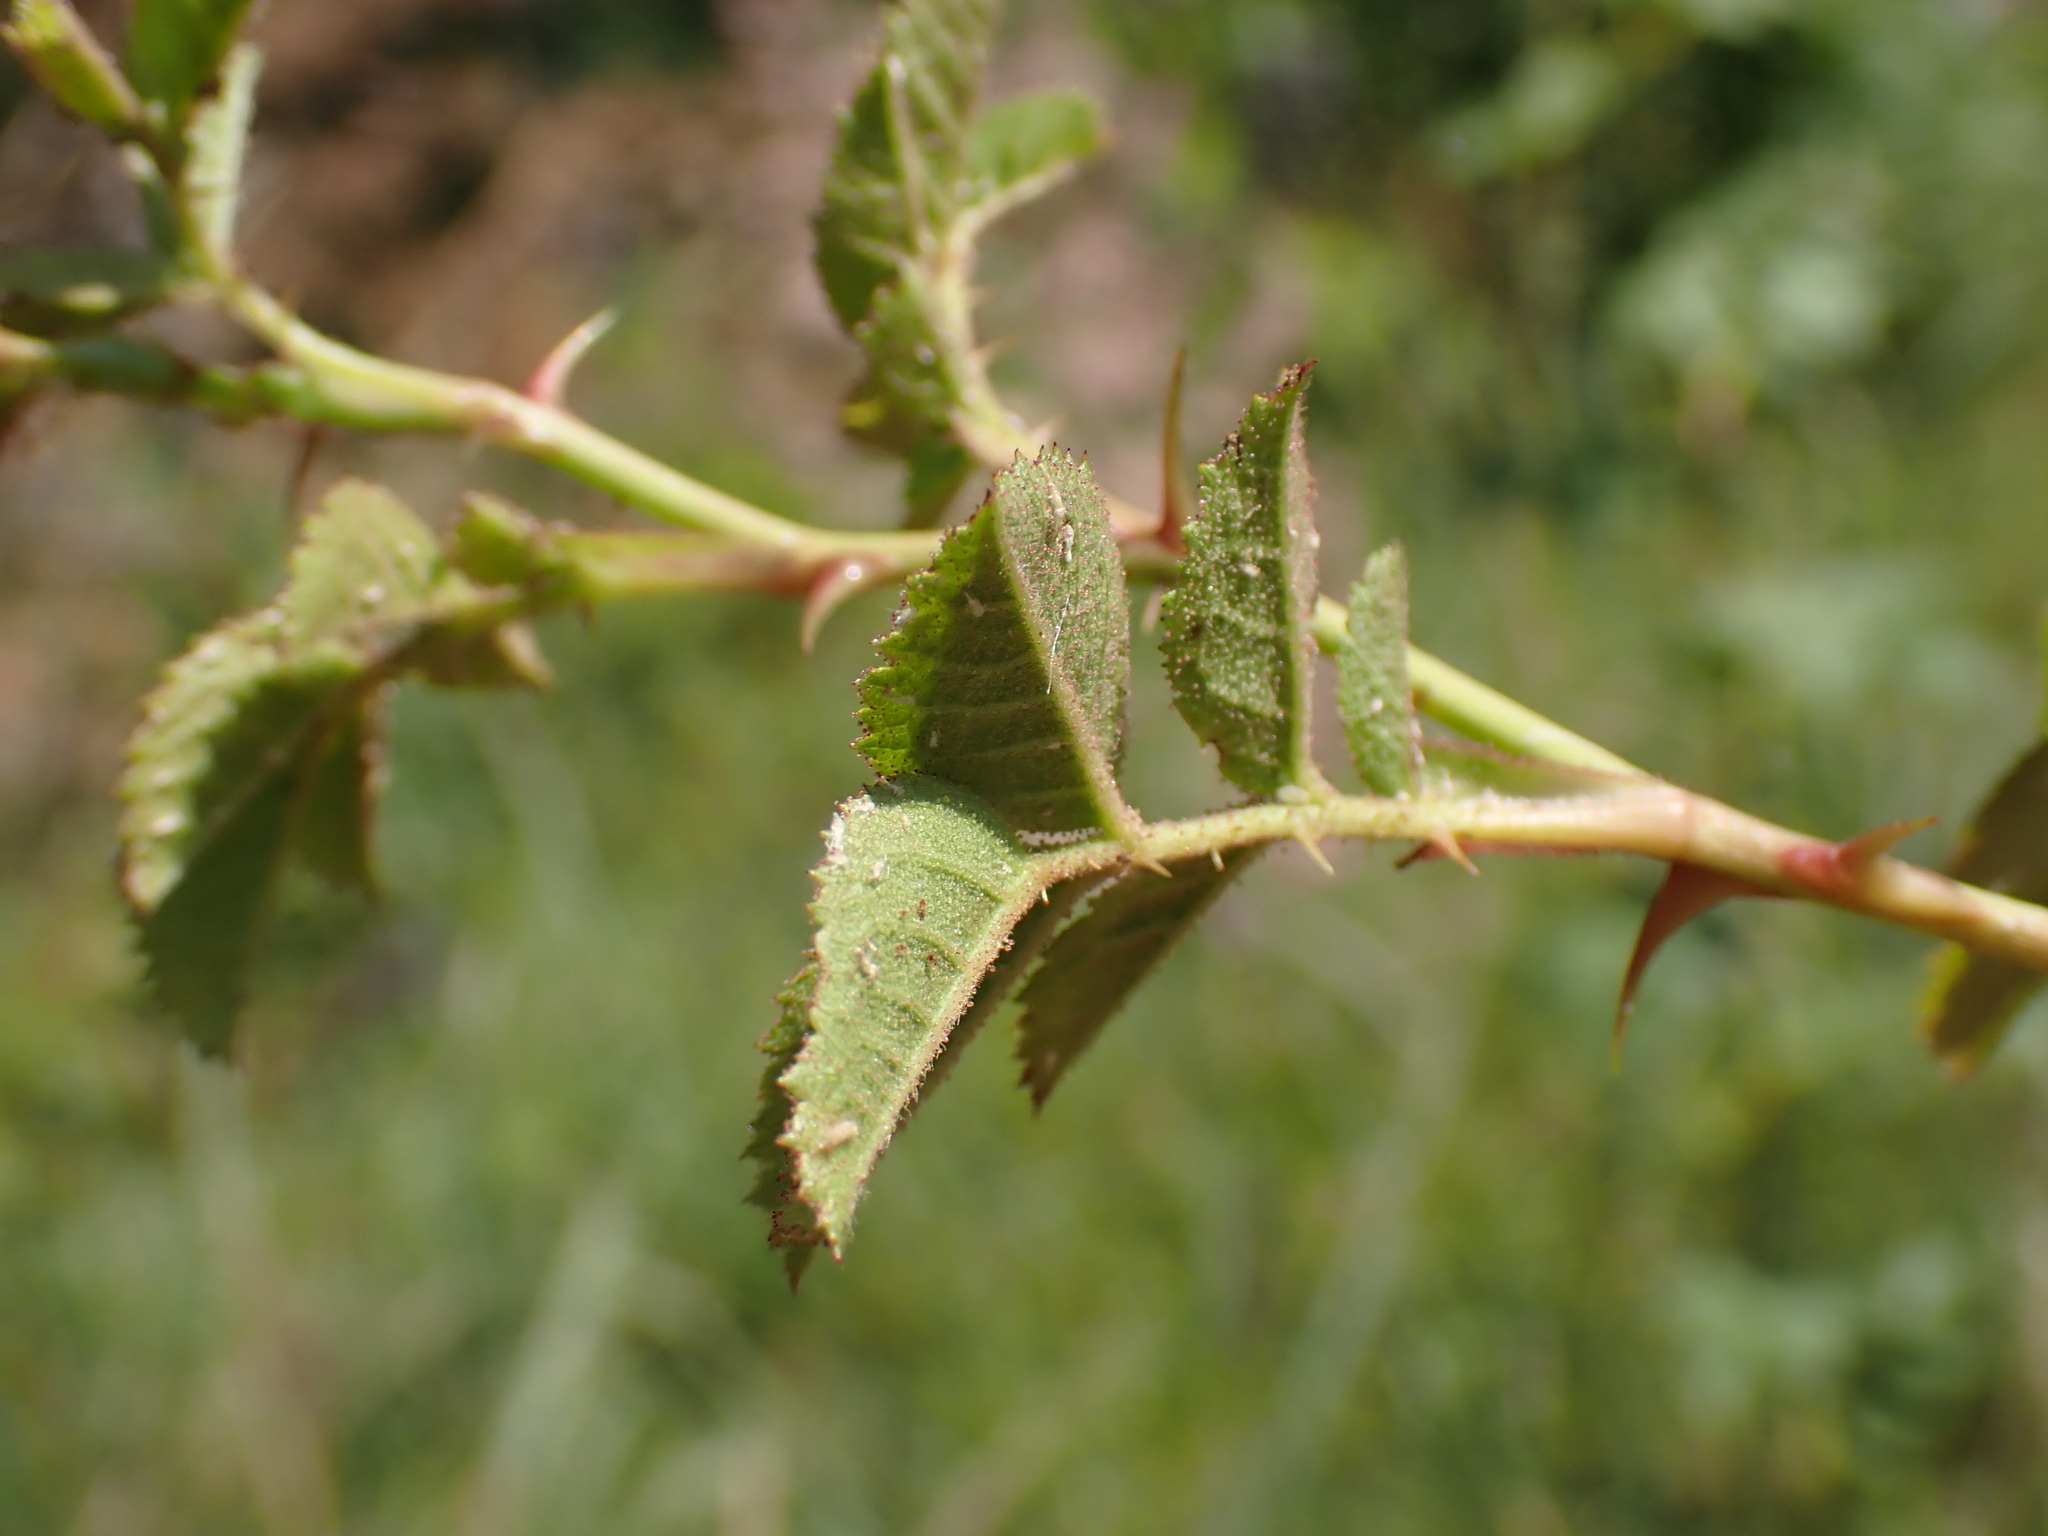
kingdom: Plantae
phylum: Tracheophyta
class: Magnoliopsida
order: Rosales
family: Rosaceae
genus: Rosa
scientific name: Rosa rubiginosa
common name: Sweet-briar
